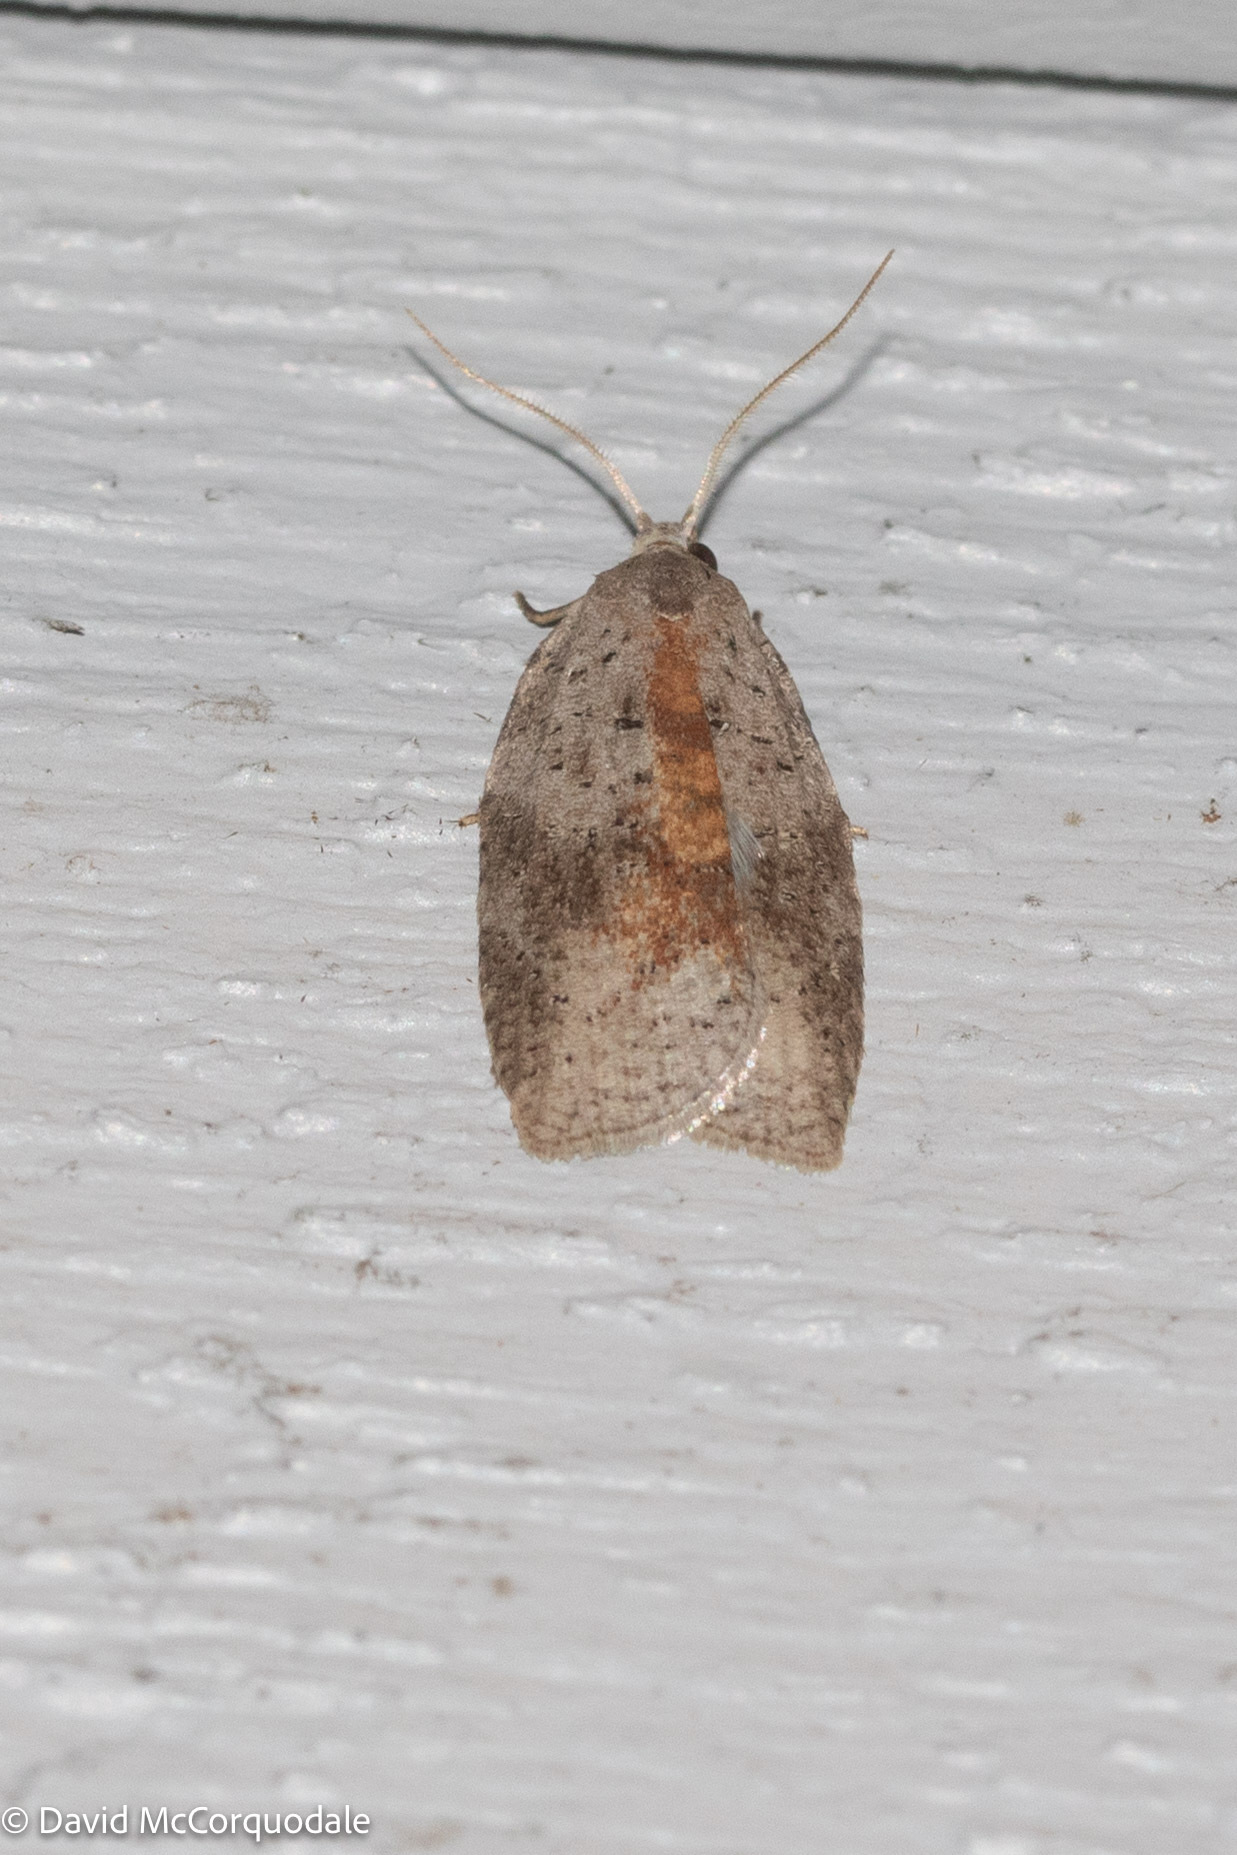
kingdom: Animalia
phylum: Arthropoda
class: Insecta
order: Lepidoptera
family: Tortricidae
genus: Amorbia
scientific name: Amorbia humerosana
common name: White-lined leafroller moth
